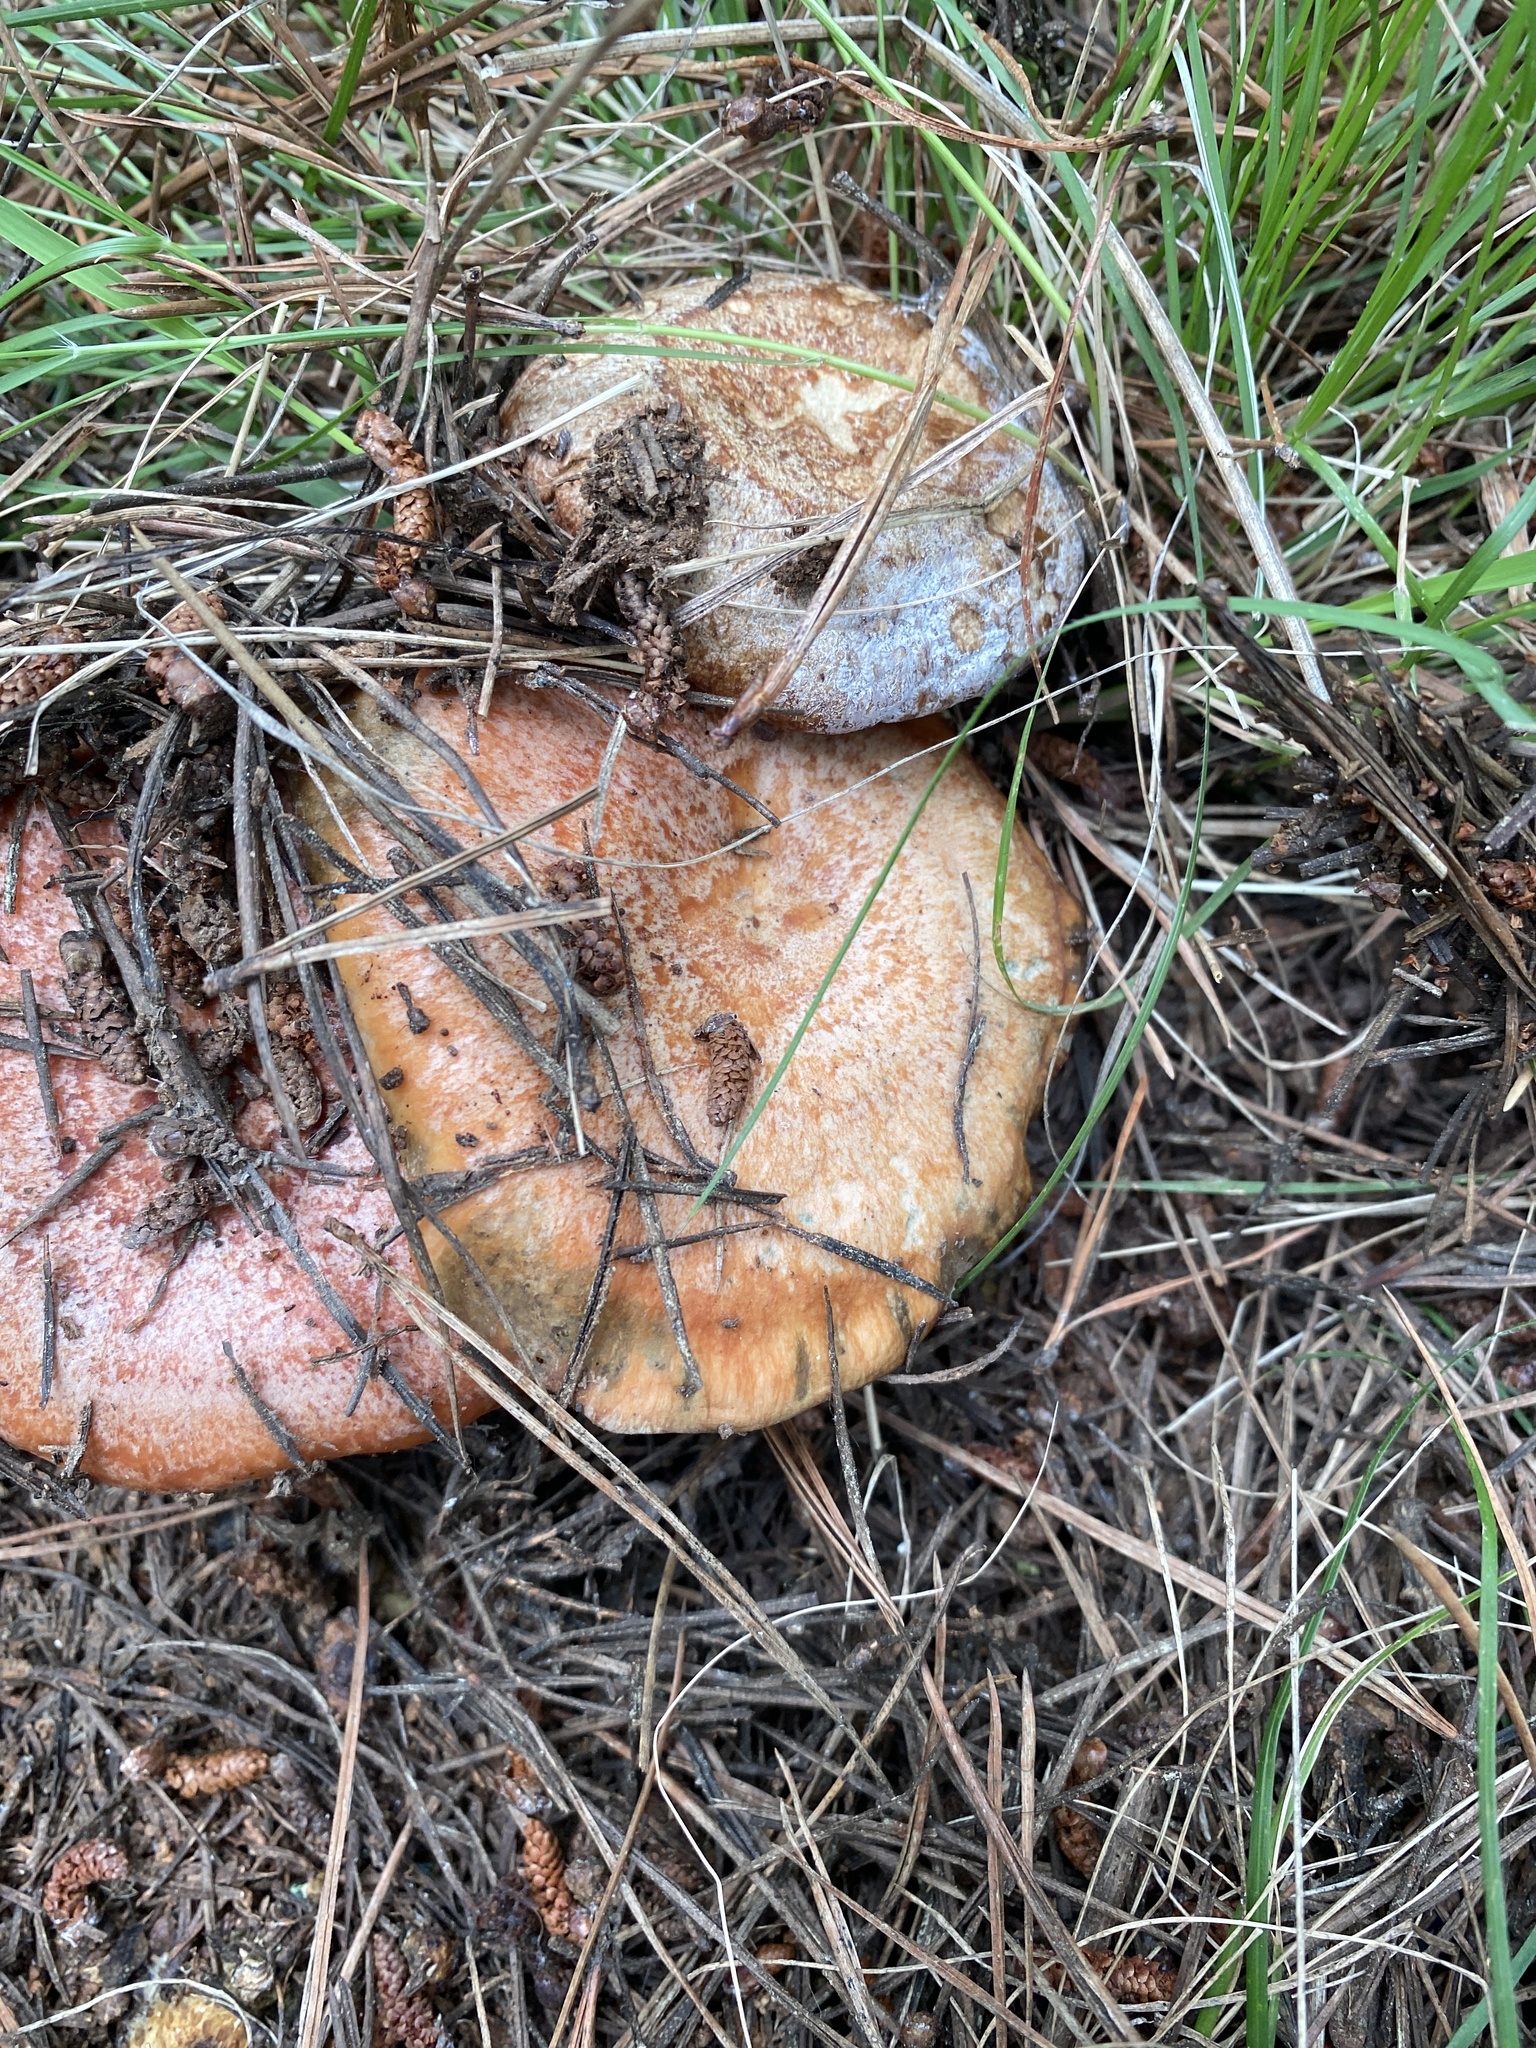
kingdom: Fungi
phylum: Basidiomycota
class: Agaricomycetes
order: Russulales
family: Russulaceae
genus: Lactarius
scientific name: Lactarius deliciosus
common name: Saffron milk-cap
